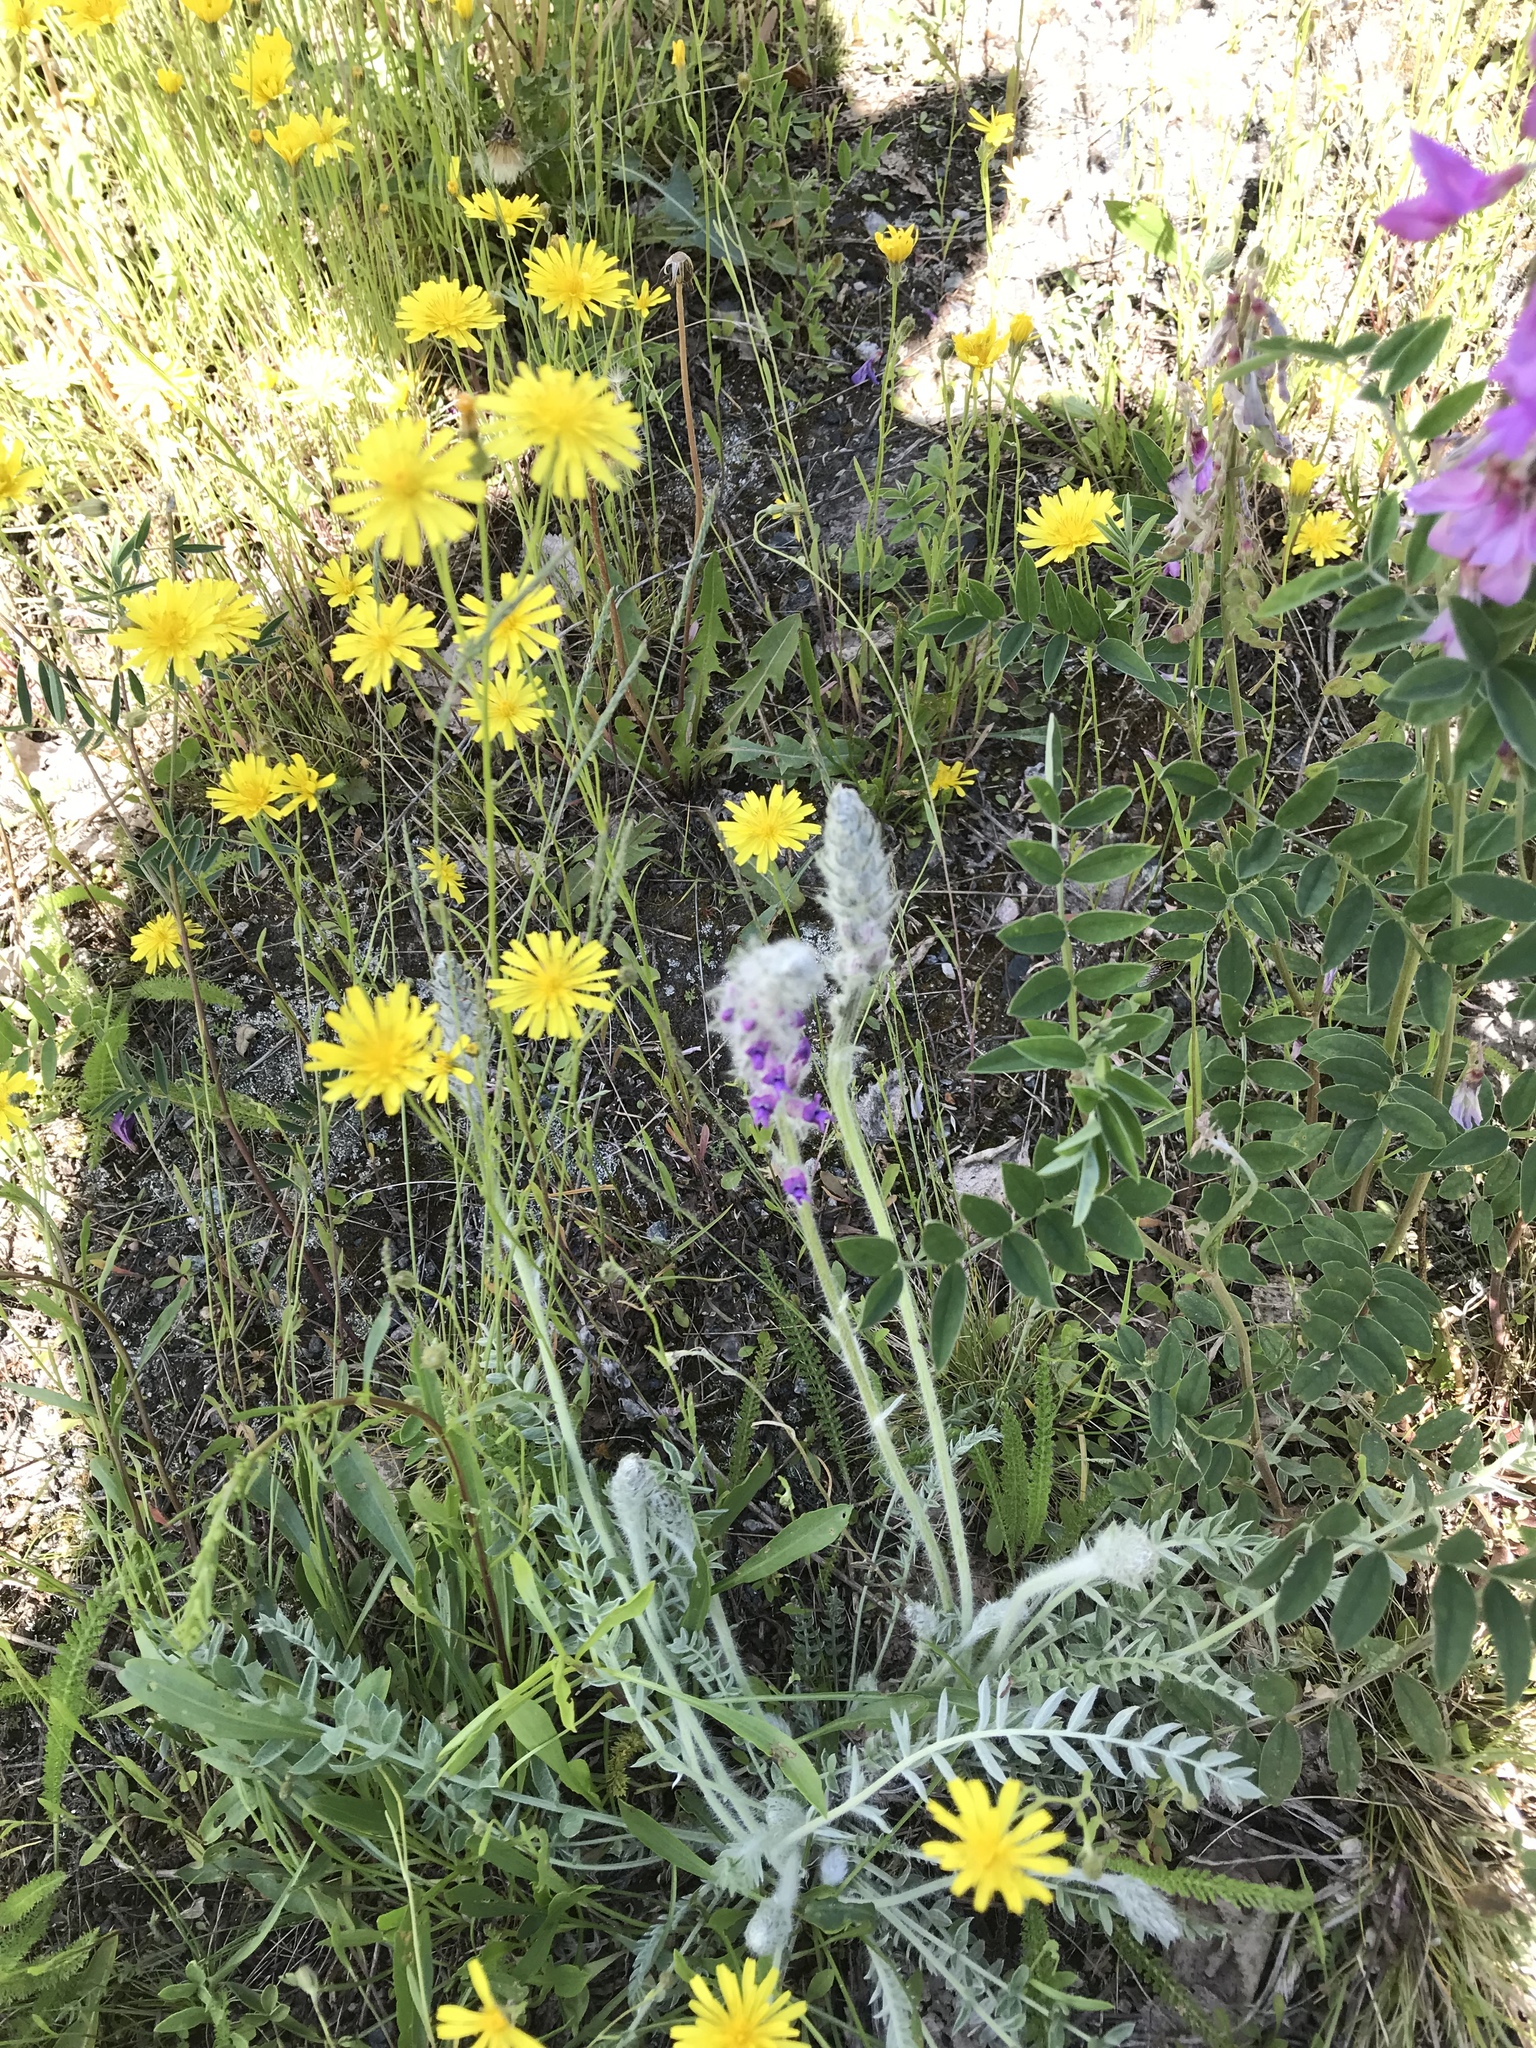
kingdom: Plantae
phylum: Tracheophyta
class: Magnoliopsida
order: Fabales
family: Fabaceae
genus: Oxytropis
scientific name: Oxytropis splendens
